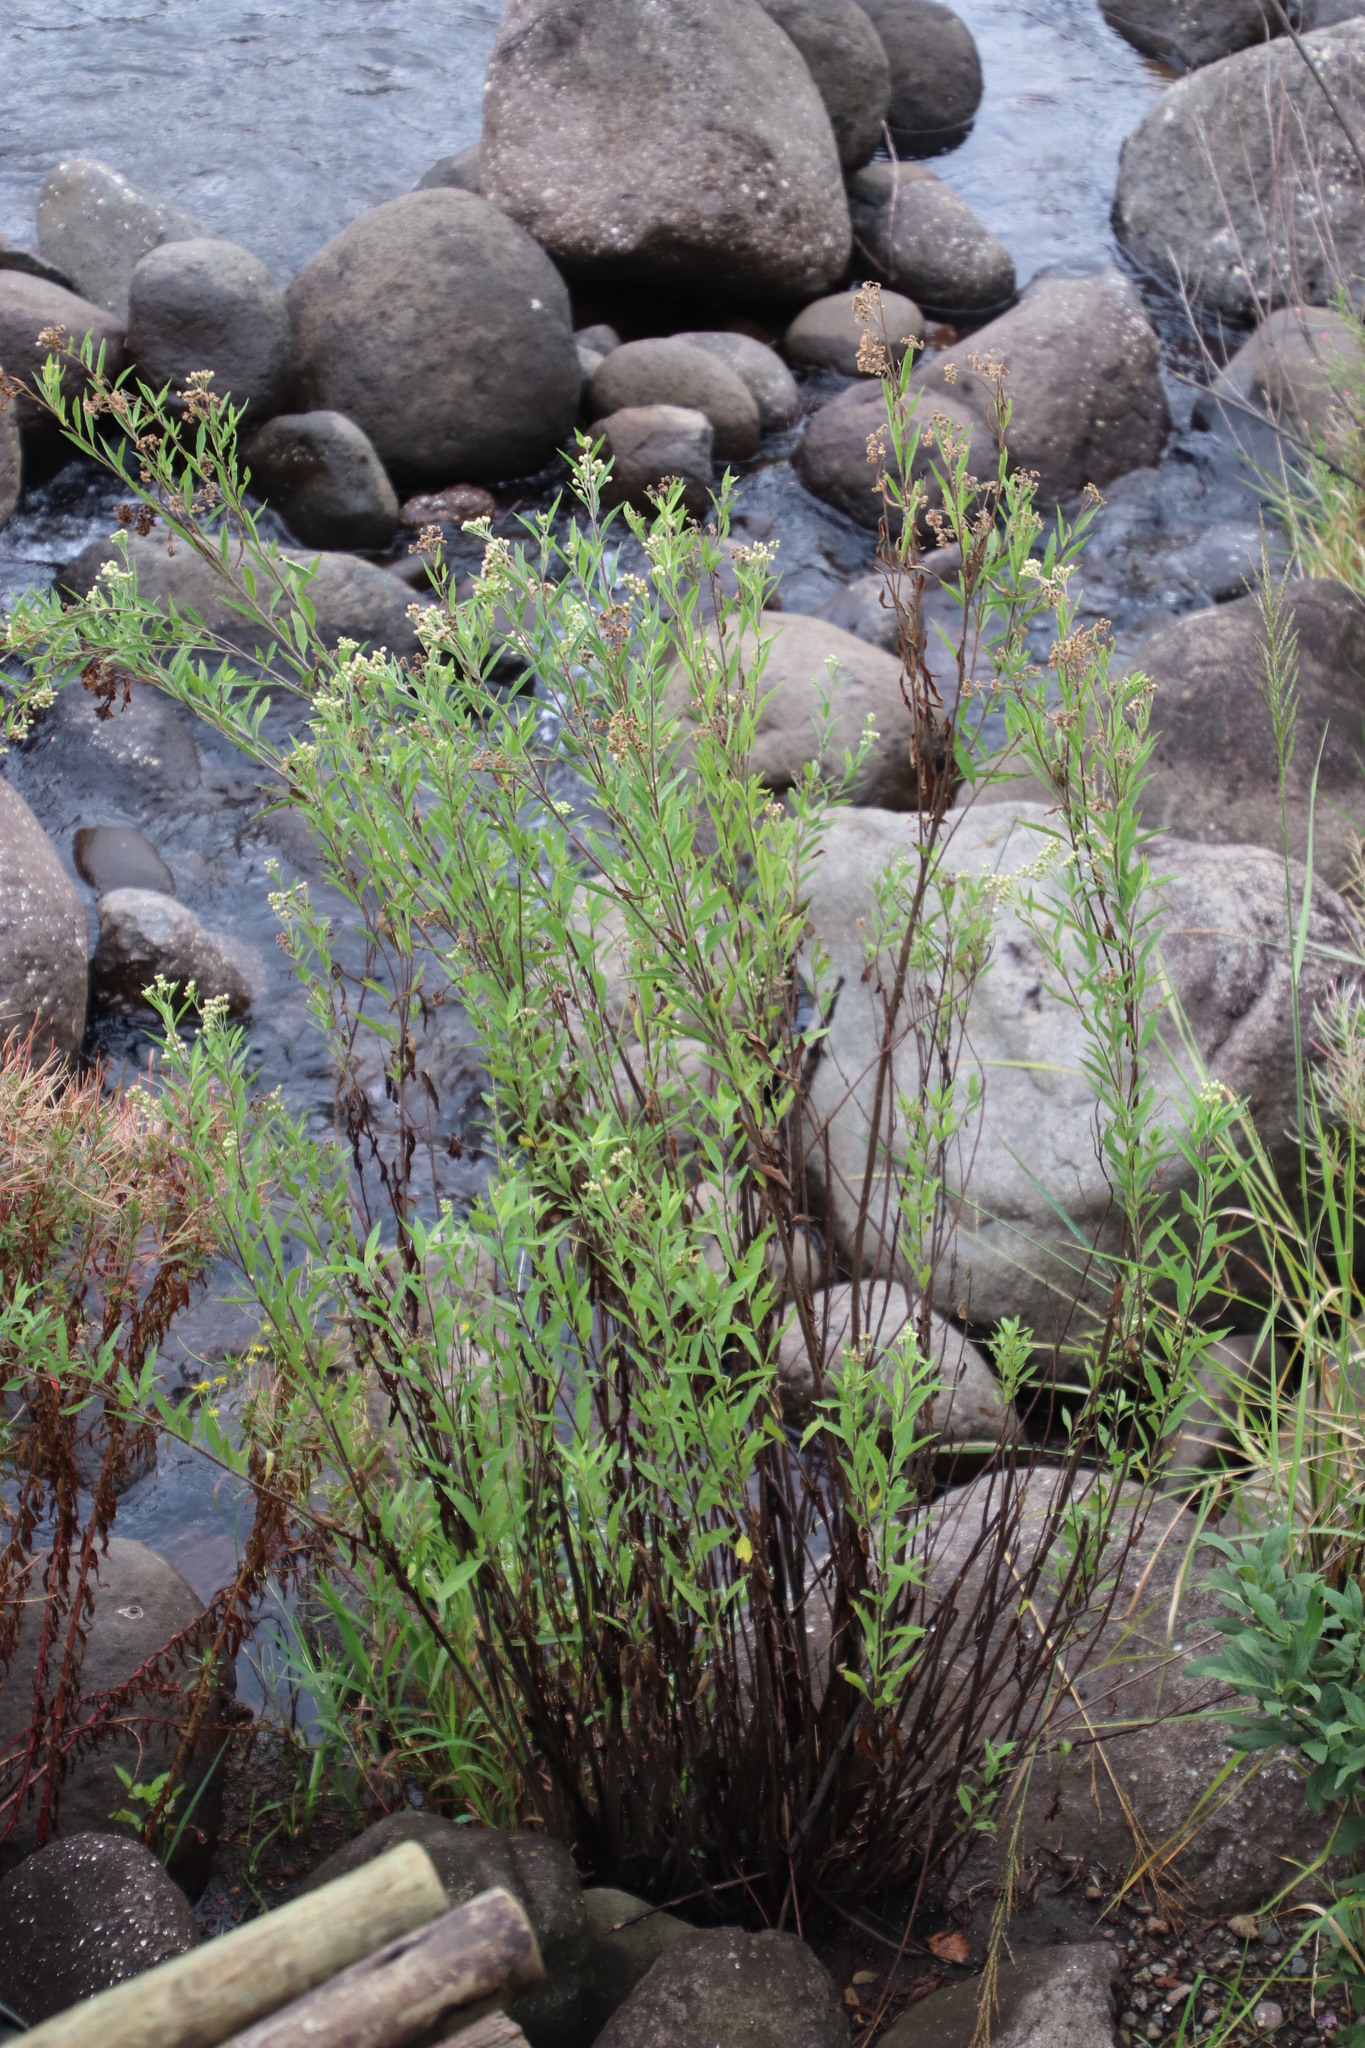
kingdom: Plantae
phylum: Tracheophyta
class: Magnoliopsida
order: Asterales
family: Asteraceae
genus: Nidorella
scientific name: Nidorella ivifolia
